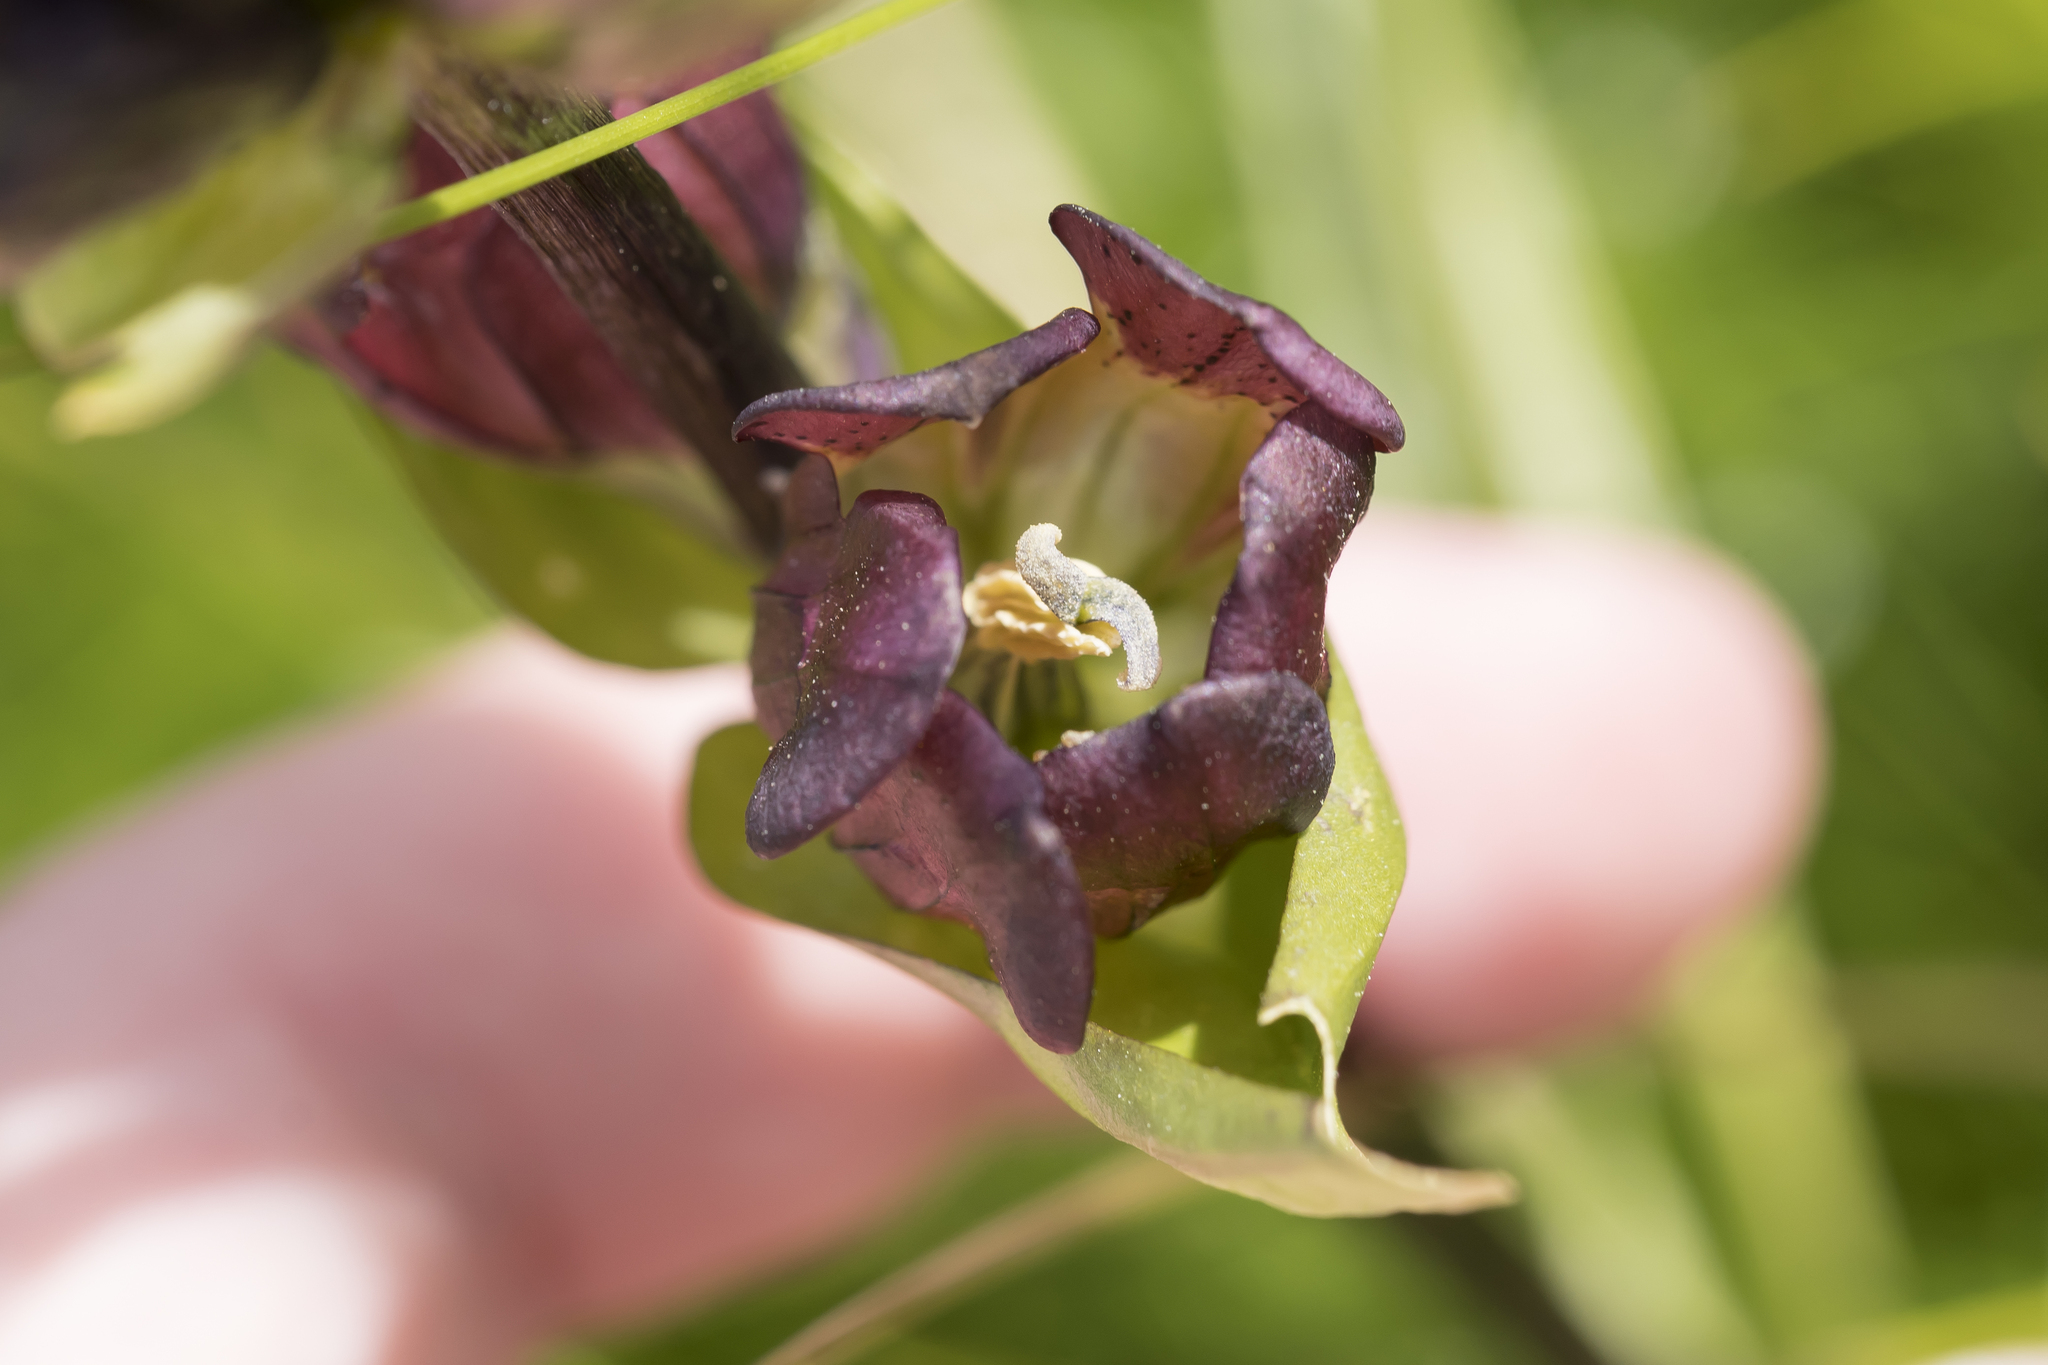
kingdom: Plantae
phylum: Tracheophyta
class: Magnoliopsida
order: Gentianales
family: Gentianaceae
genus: Gentiana
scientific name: Gentiana purpurea
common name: Purple gentian
